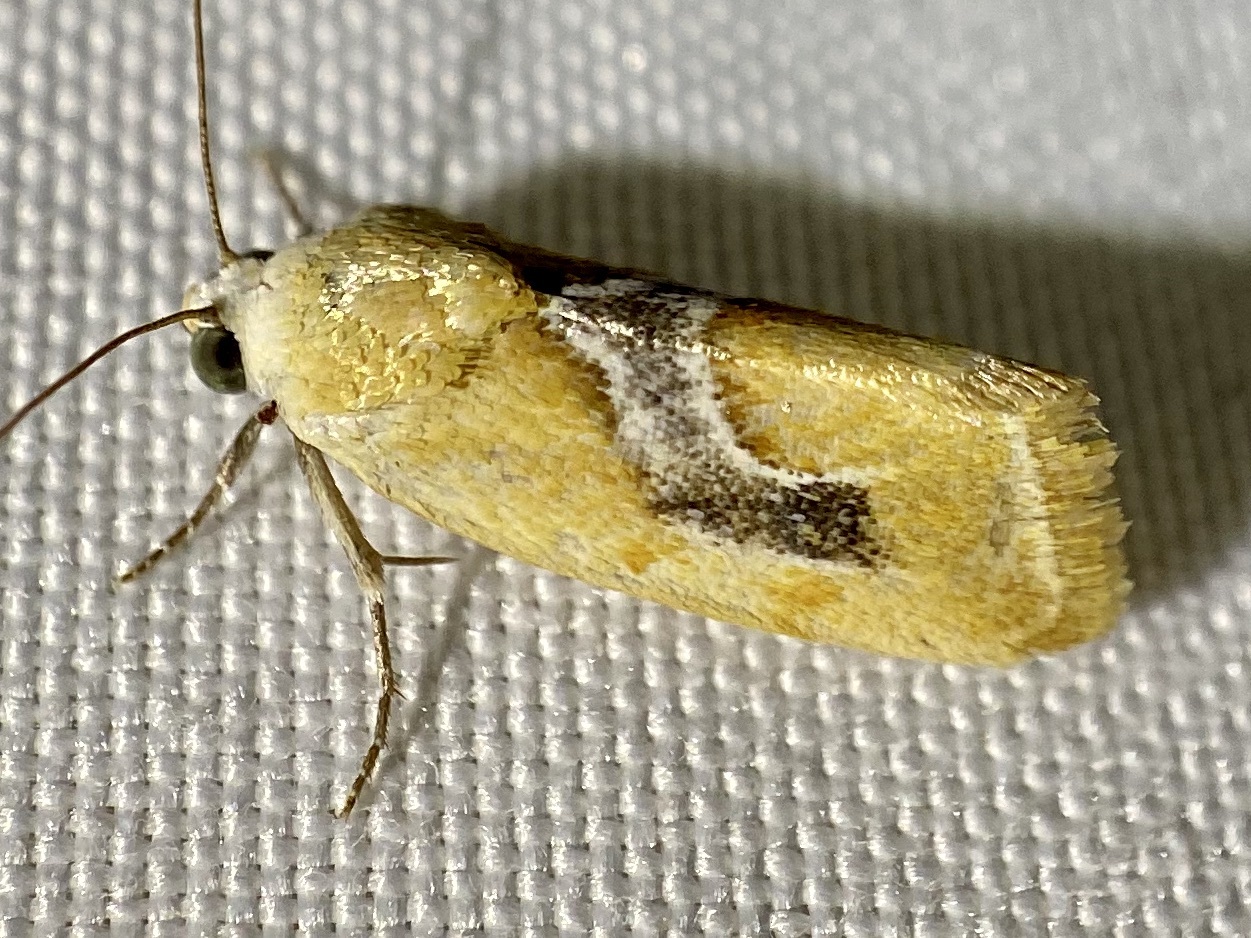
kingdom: Animalia
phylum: Arthropoda
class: Insecta
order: Lepidoptera
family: Noctuidae
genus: Ponometia
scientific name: Ponometia venustula
